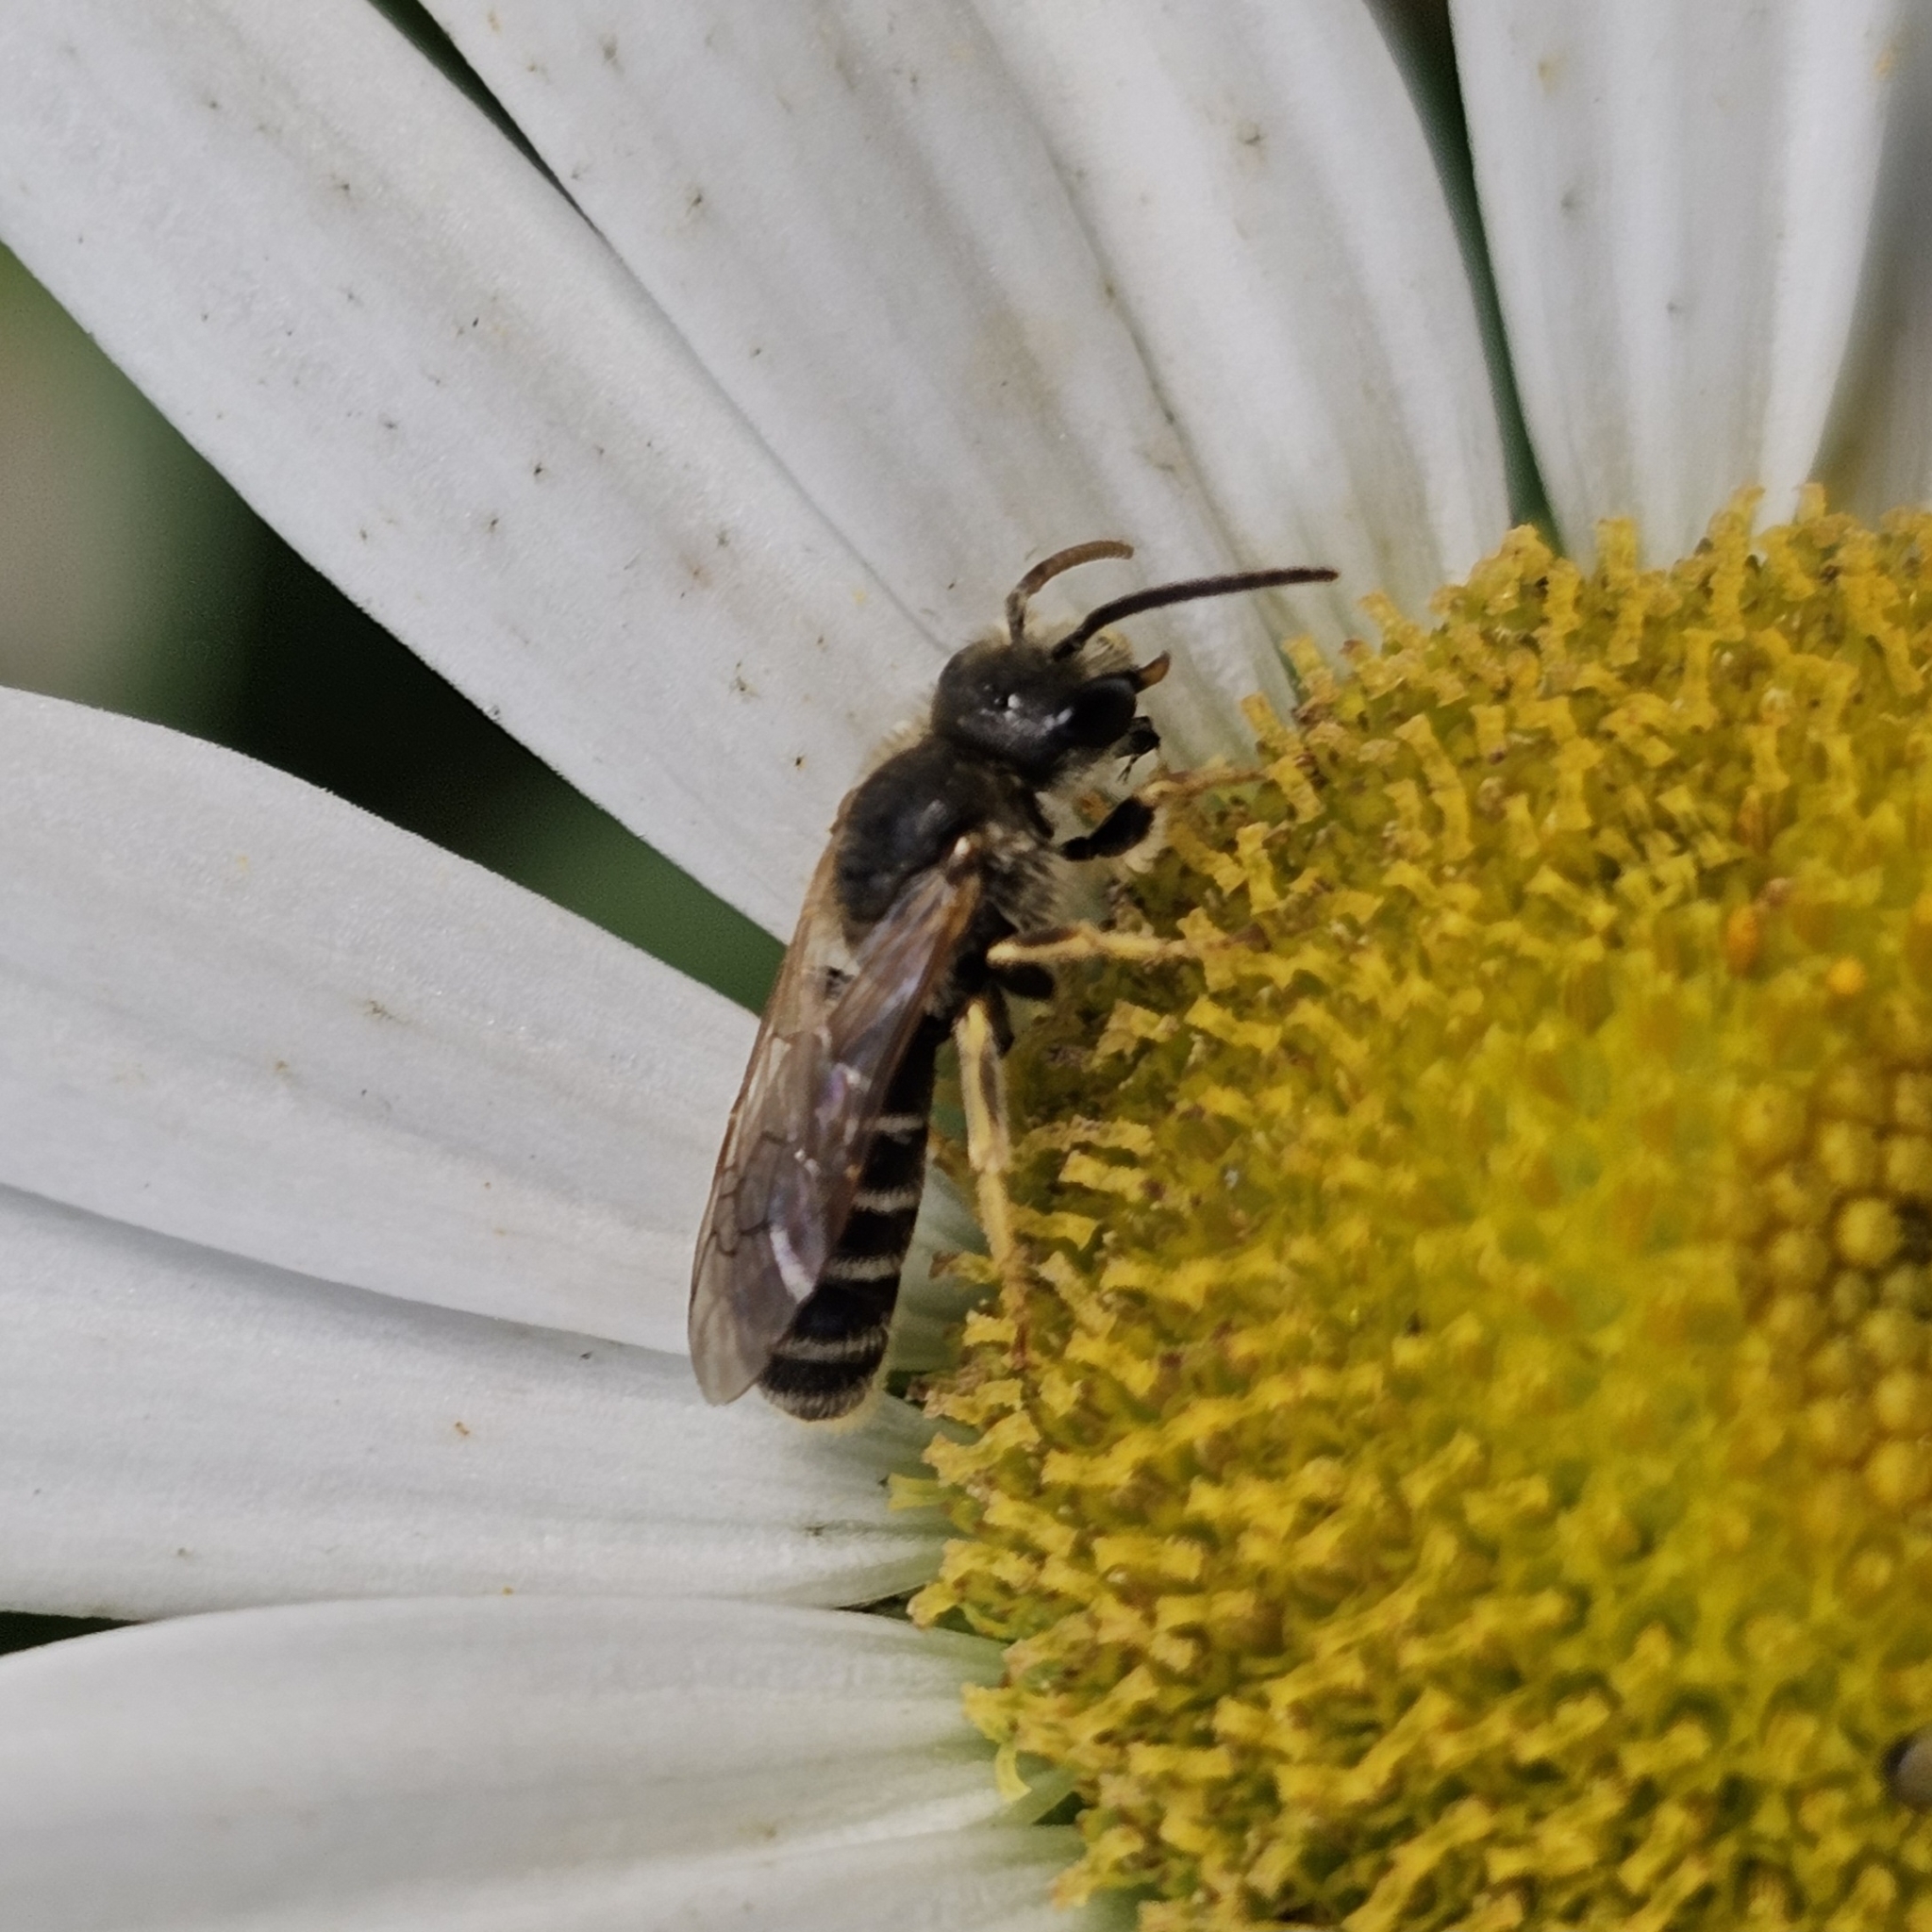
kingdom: Animalia
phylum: Arthropoda
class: Insecta
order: Hymenoptera
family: Halictidae
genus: Halictus
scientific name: Halictus ligatus
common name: Ligated furrow bee
